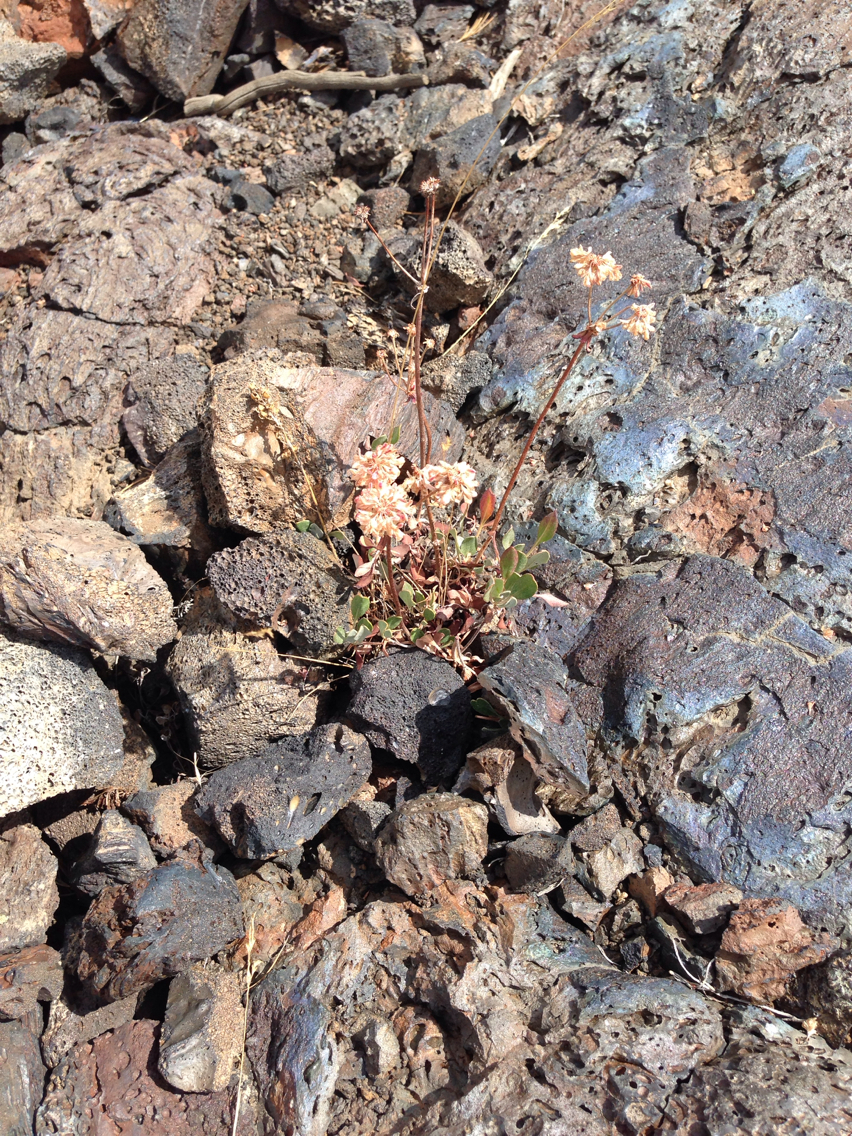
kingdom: Plantae
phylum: Tracheophyta
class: Magnoliopsida
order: Caryophyllales
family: Polygonaceae
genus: Eriogonum
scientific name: Eriogonum umbellatum
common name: Sulfur-buckwheat
